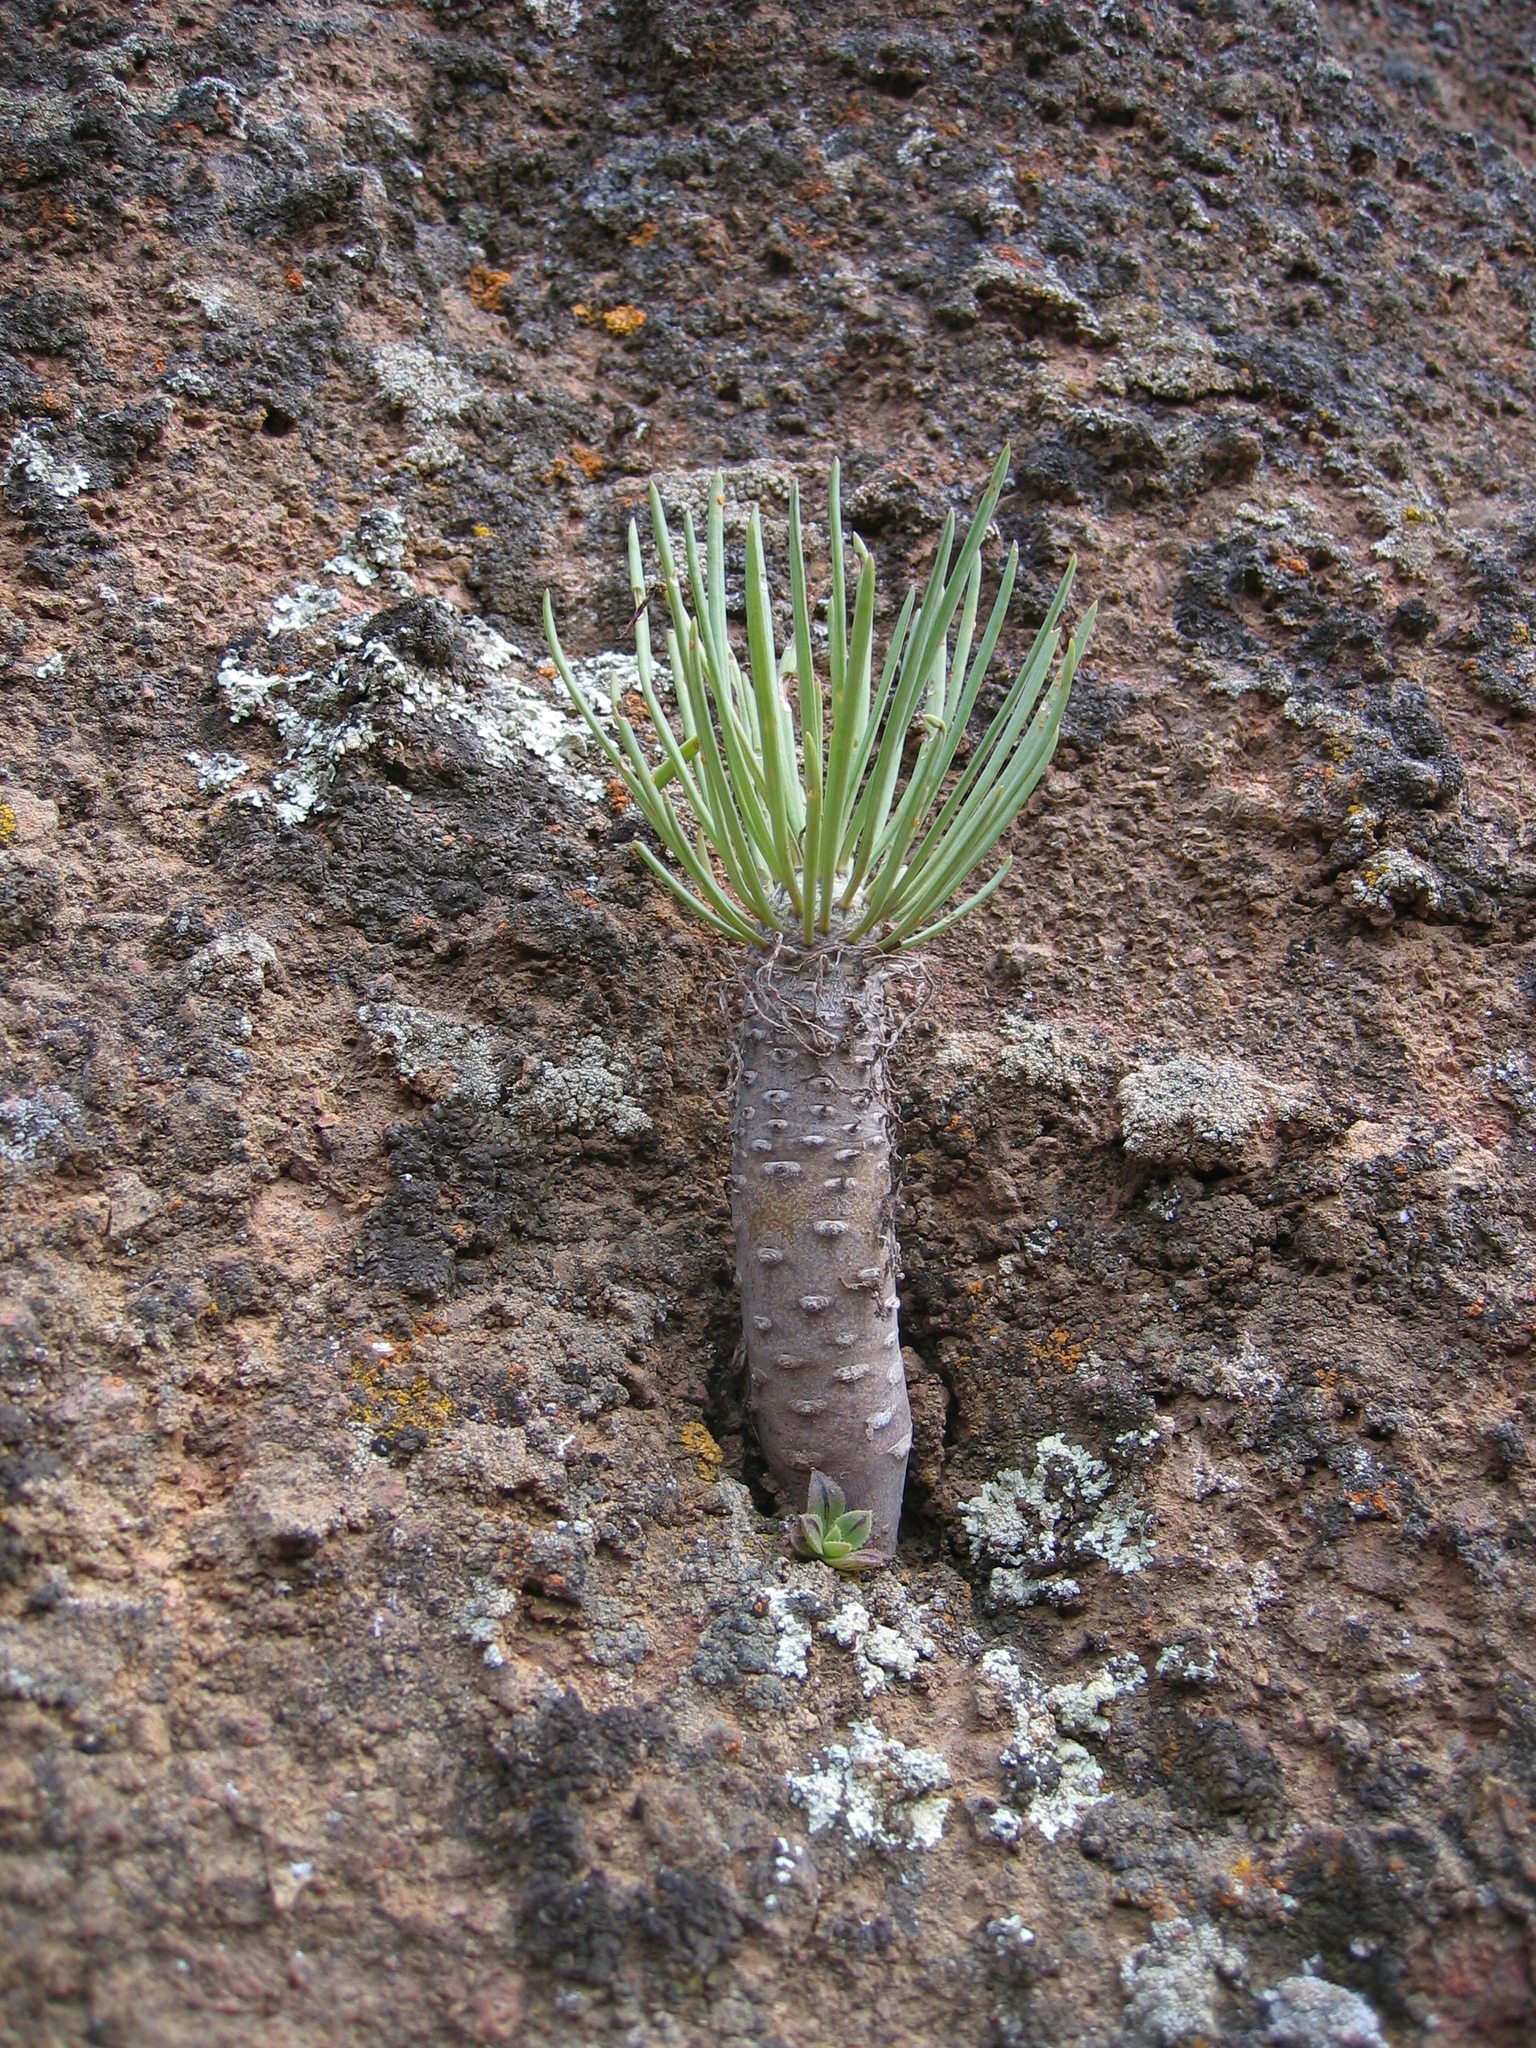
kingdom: Plantae
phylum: Tracheophyta
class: Magnoliopsida
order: Asterales
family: Asteraceae
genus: Kleinia
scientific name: Kleinia neriifolia
